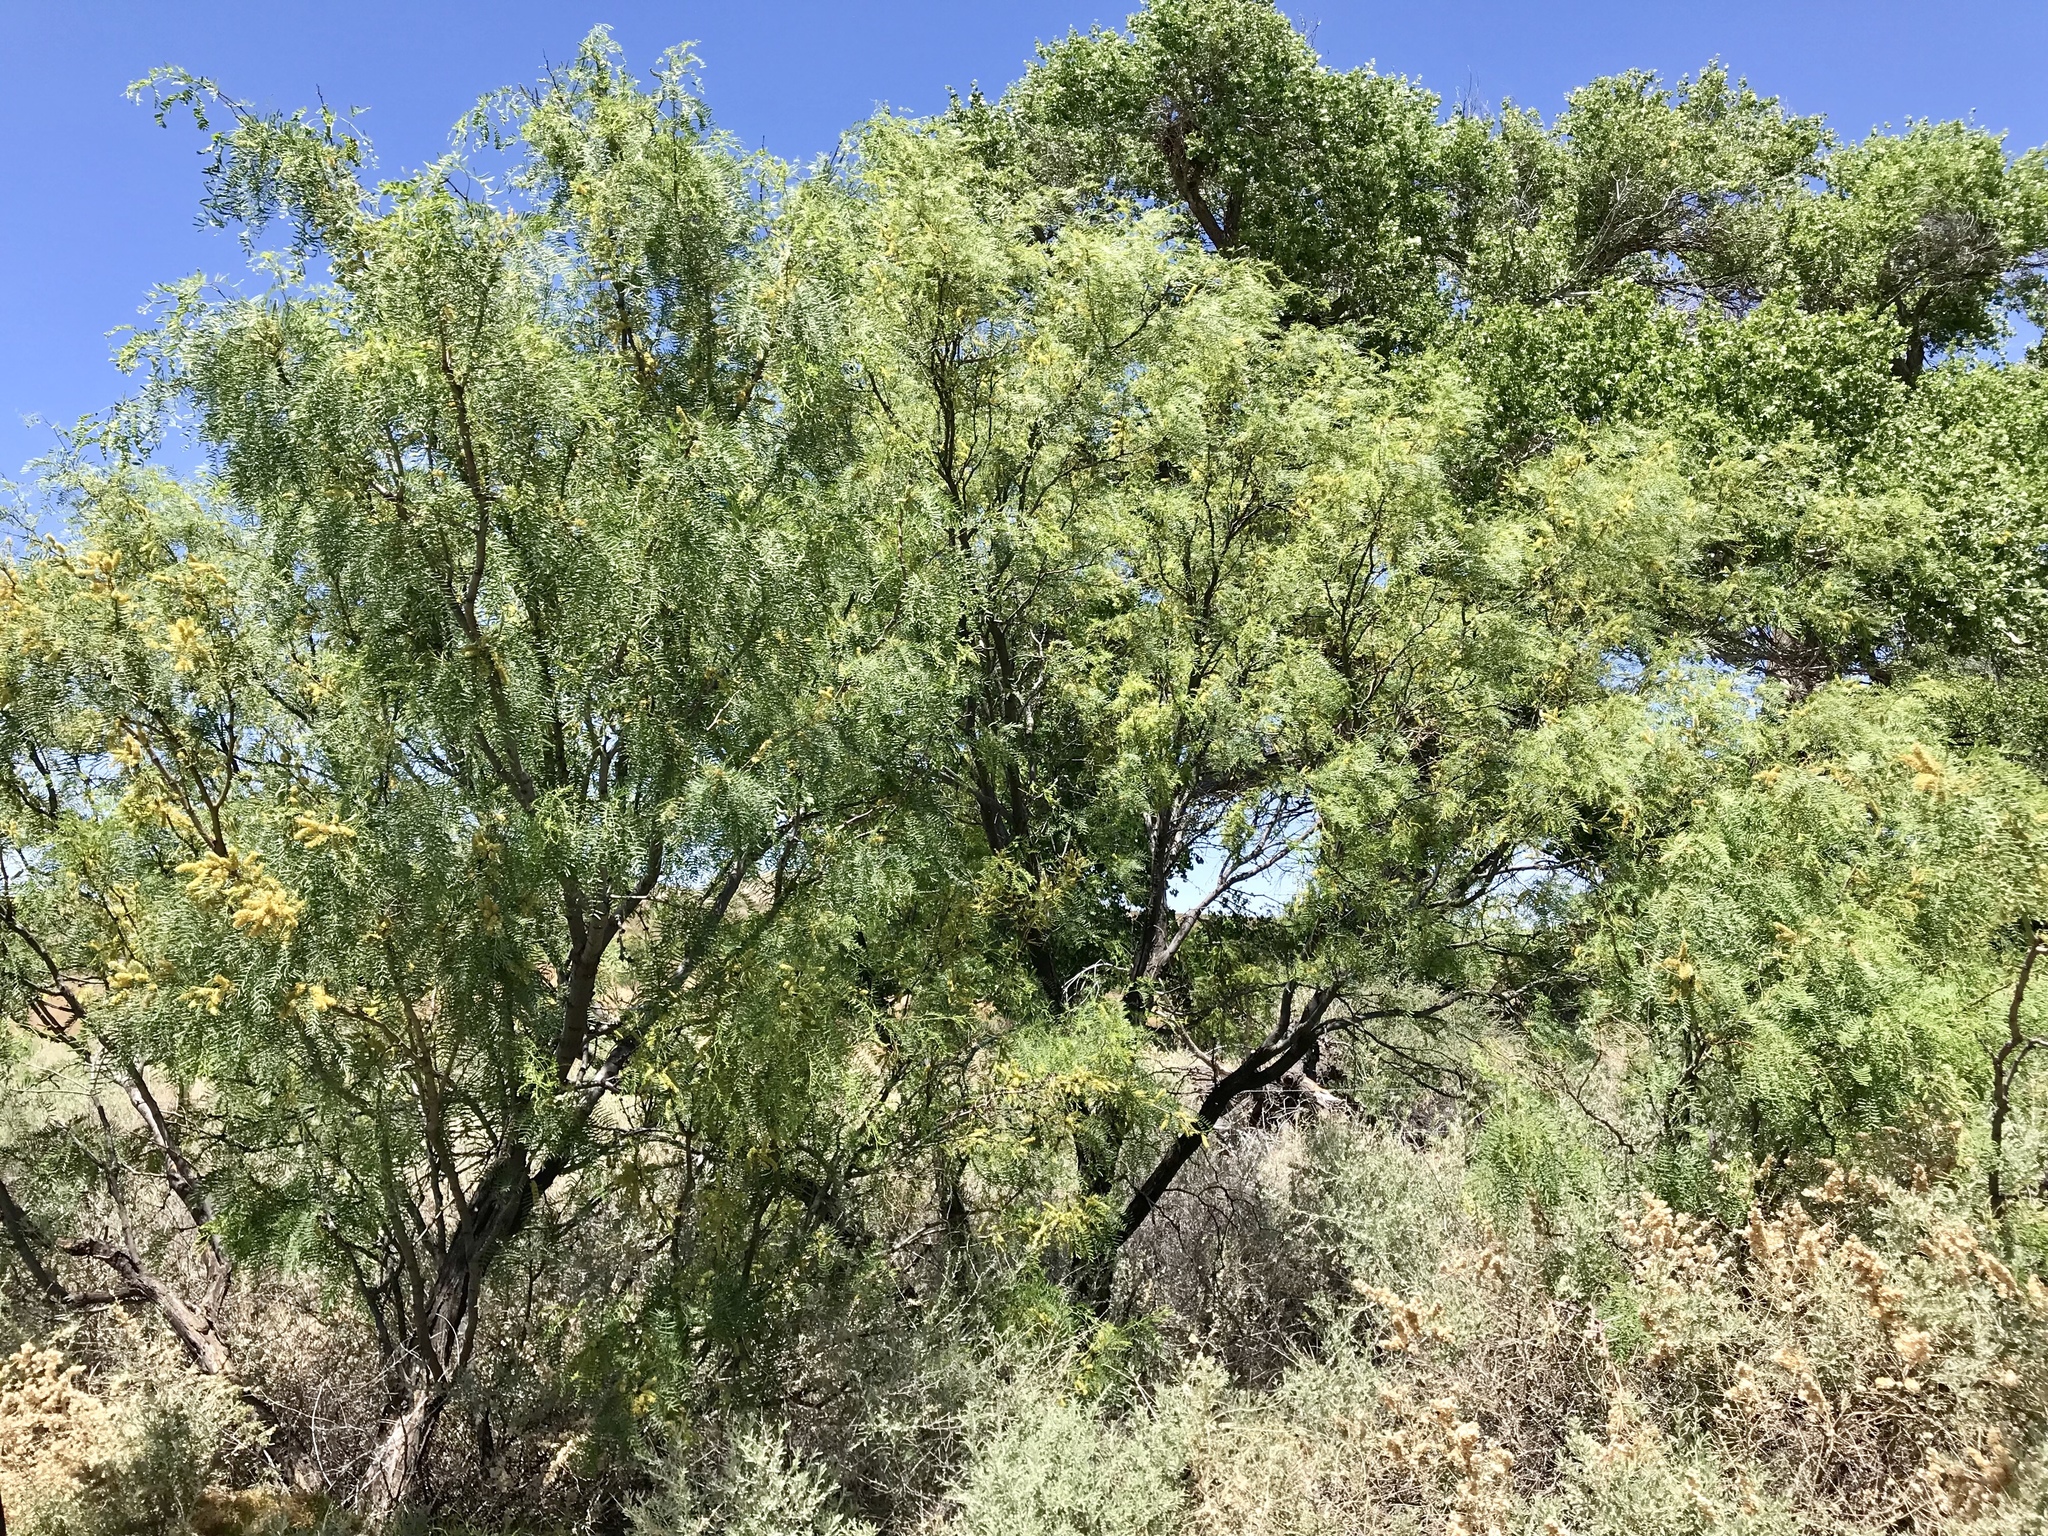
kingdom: Plantae
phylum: Tracheophyta
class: Magnoliopsida
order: Fabales
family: Fabaceae
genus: Prosopis
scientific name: Prosopis glandulosa
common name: Honey mesquite
